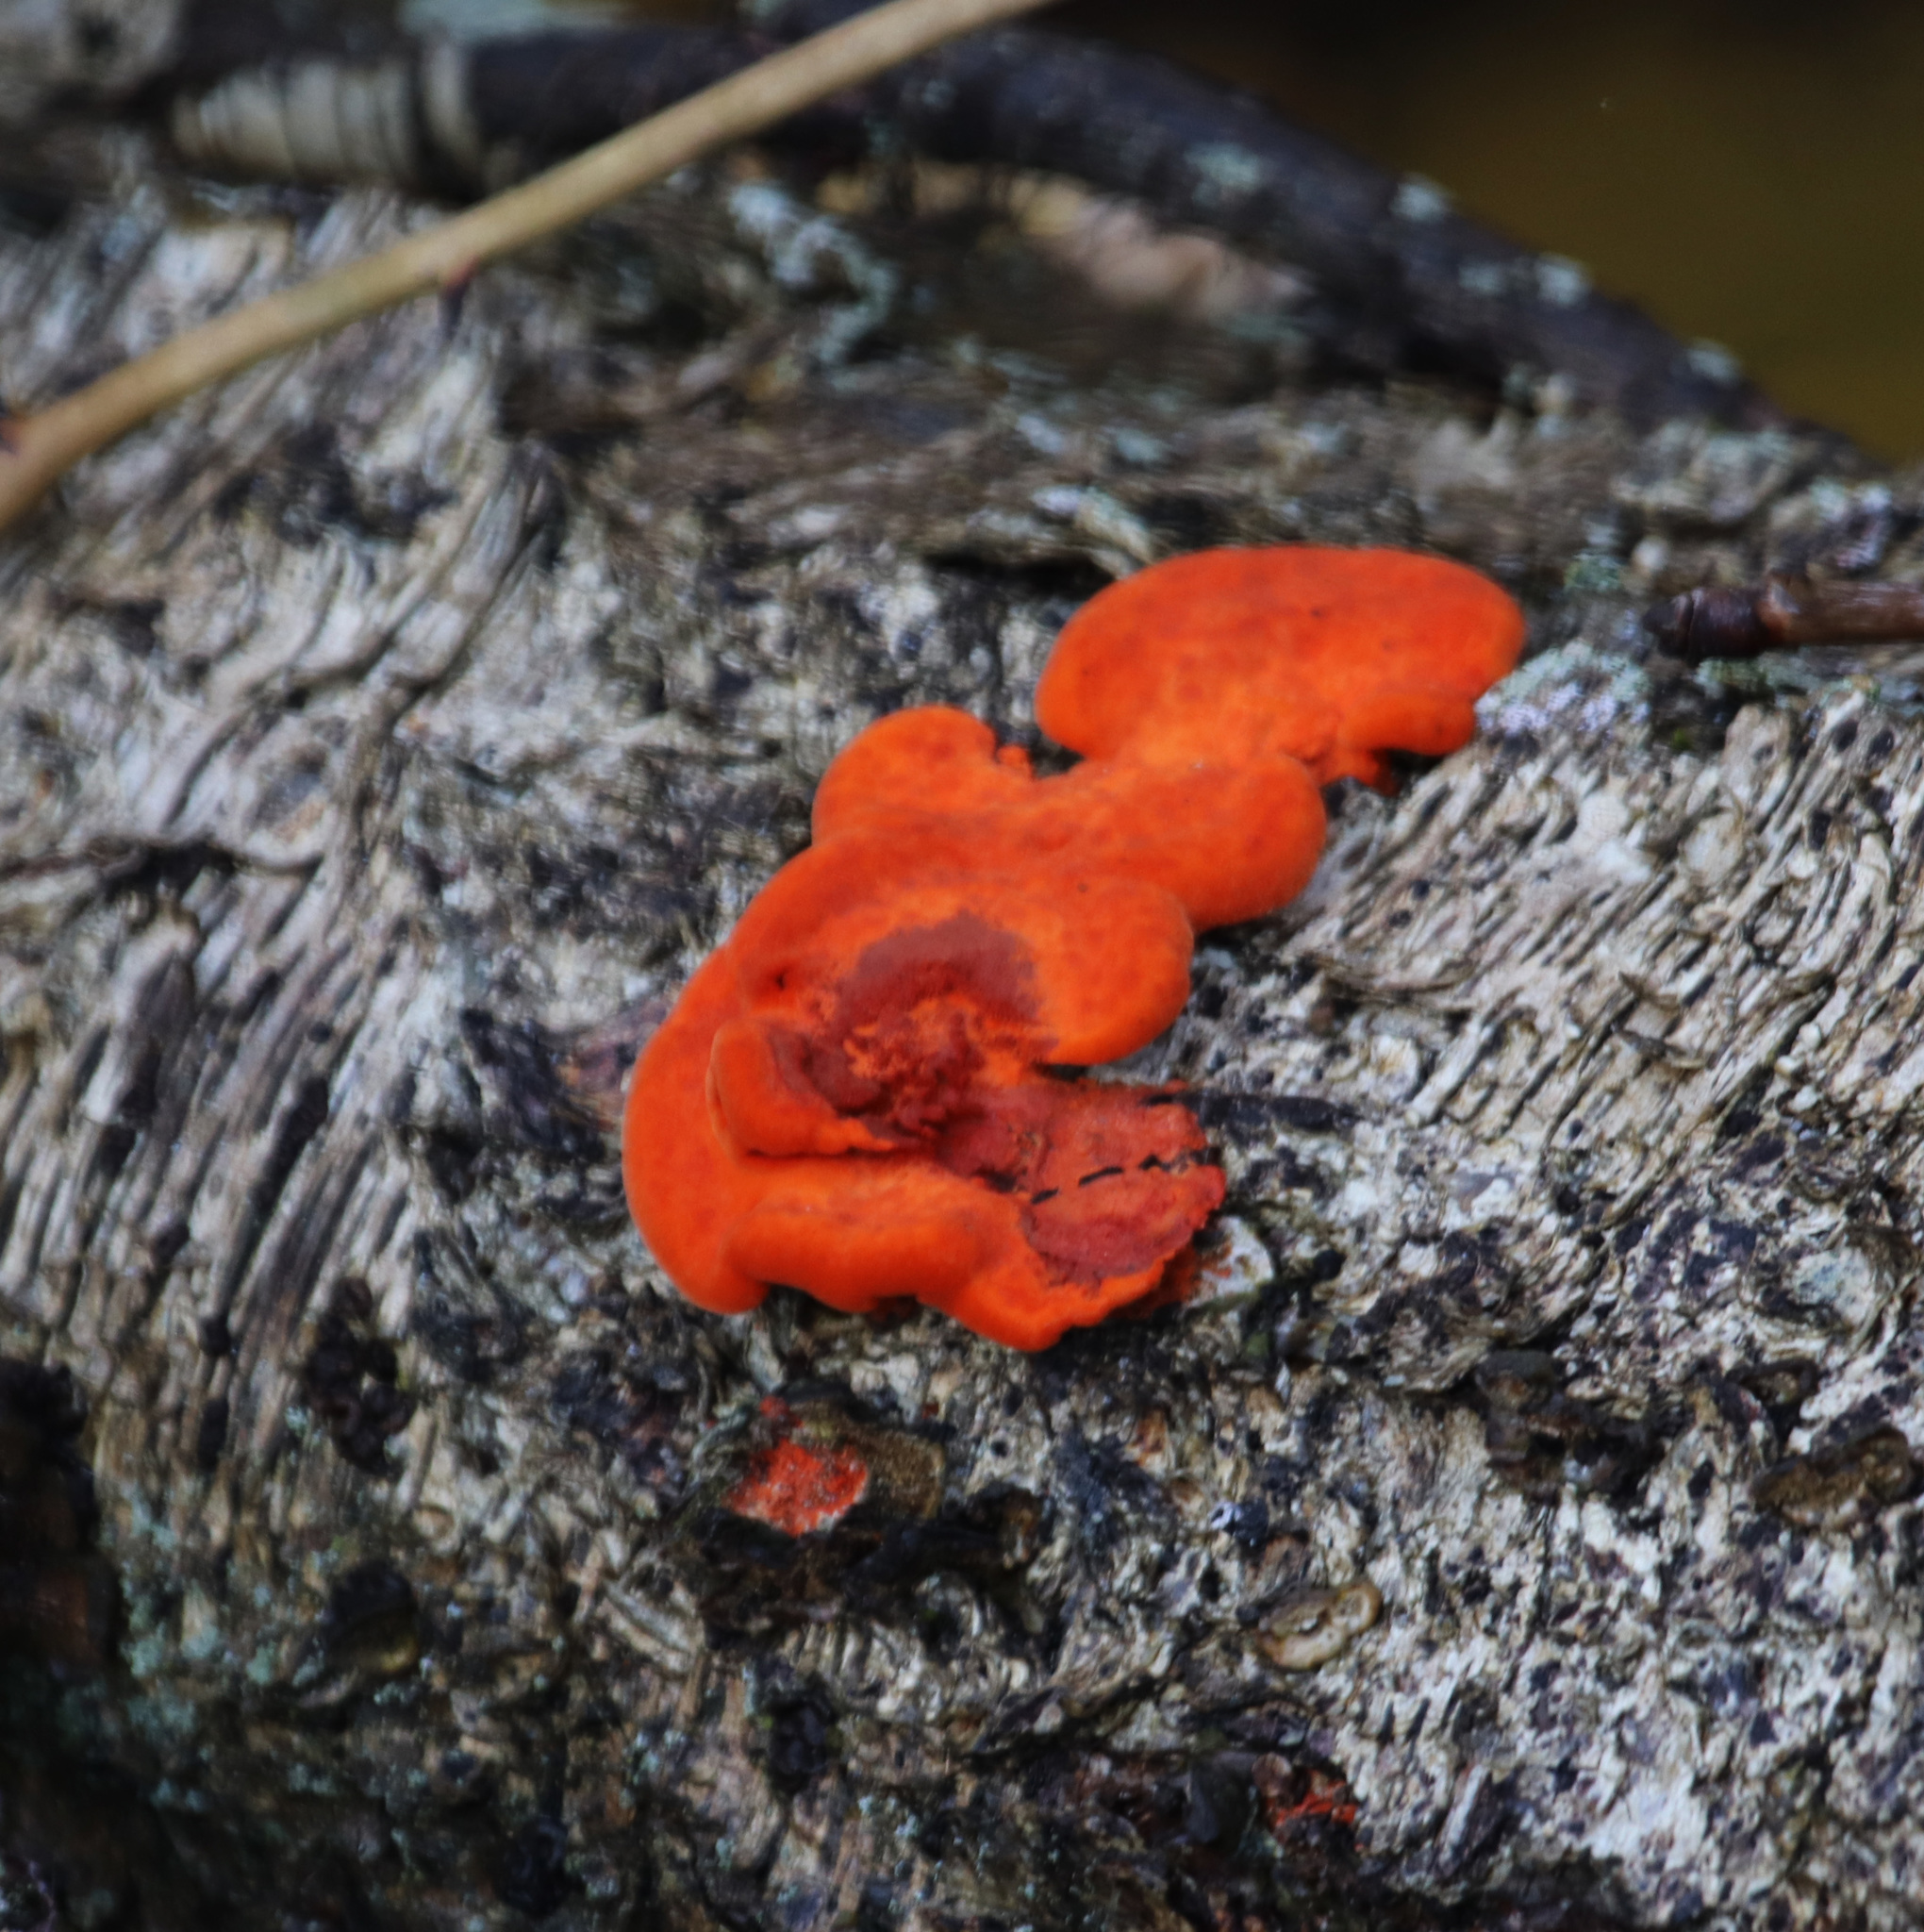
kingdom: Fungi
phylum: Basidiomycota
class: Agaricomycetes
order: Polyporales
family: Polyporaceae
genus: Trametes
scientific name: Trametes cinnabarina
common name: Northern cinnabar polypore
